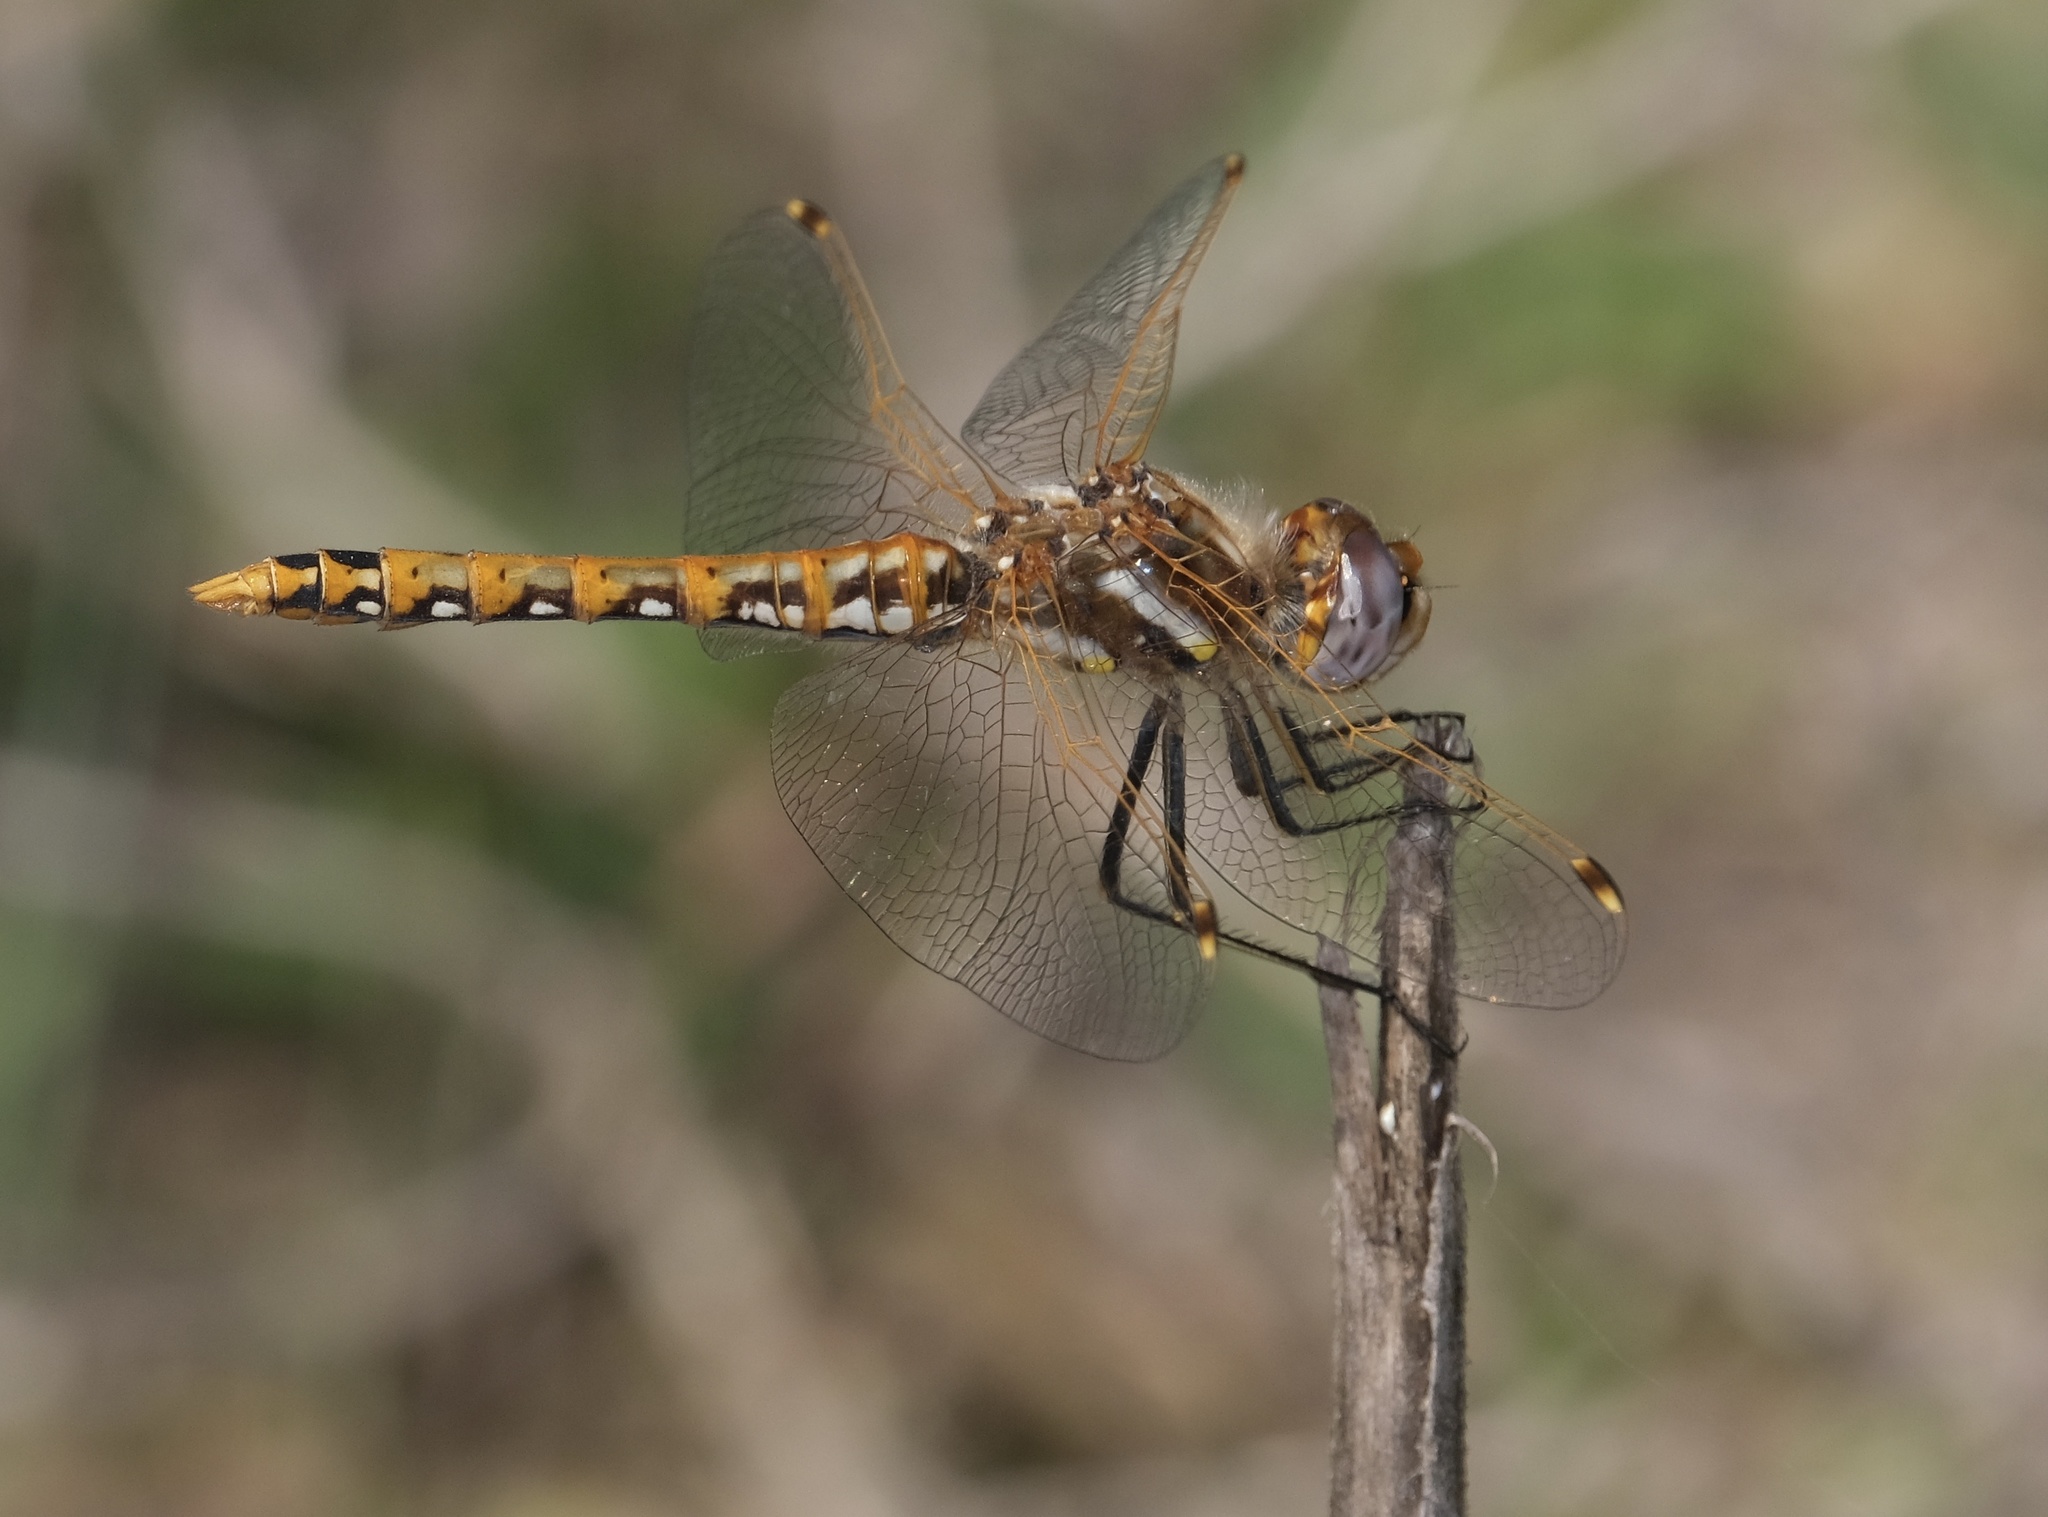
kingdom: Animalia
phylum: Arthropoda
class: Insecta
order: Odonata
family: Libellulidae
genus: Sympetrum
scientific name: Sympetrum corruptum
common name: Variegated meadowhawk
